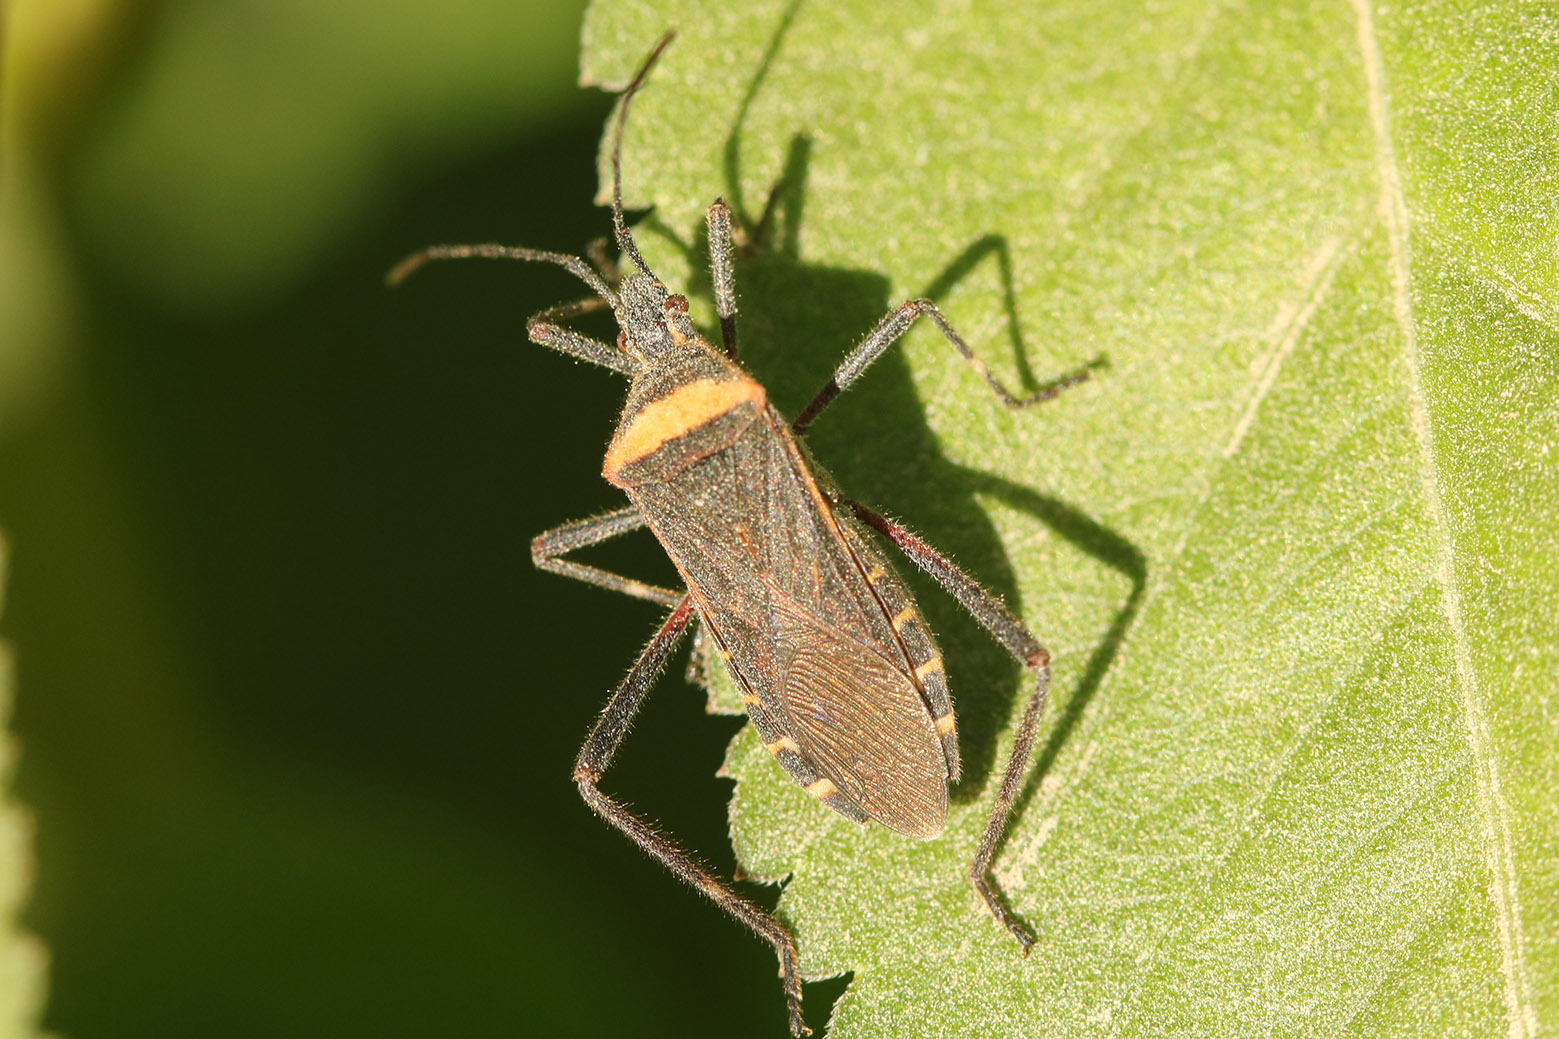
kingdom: Animalia
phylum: Arthropoda
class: Insecta
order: Hemiptera
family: Coreidae
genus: Phthiacnemia
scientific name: Phthiacnemia picta
